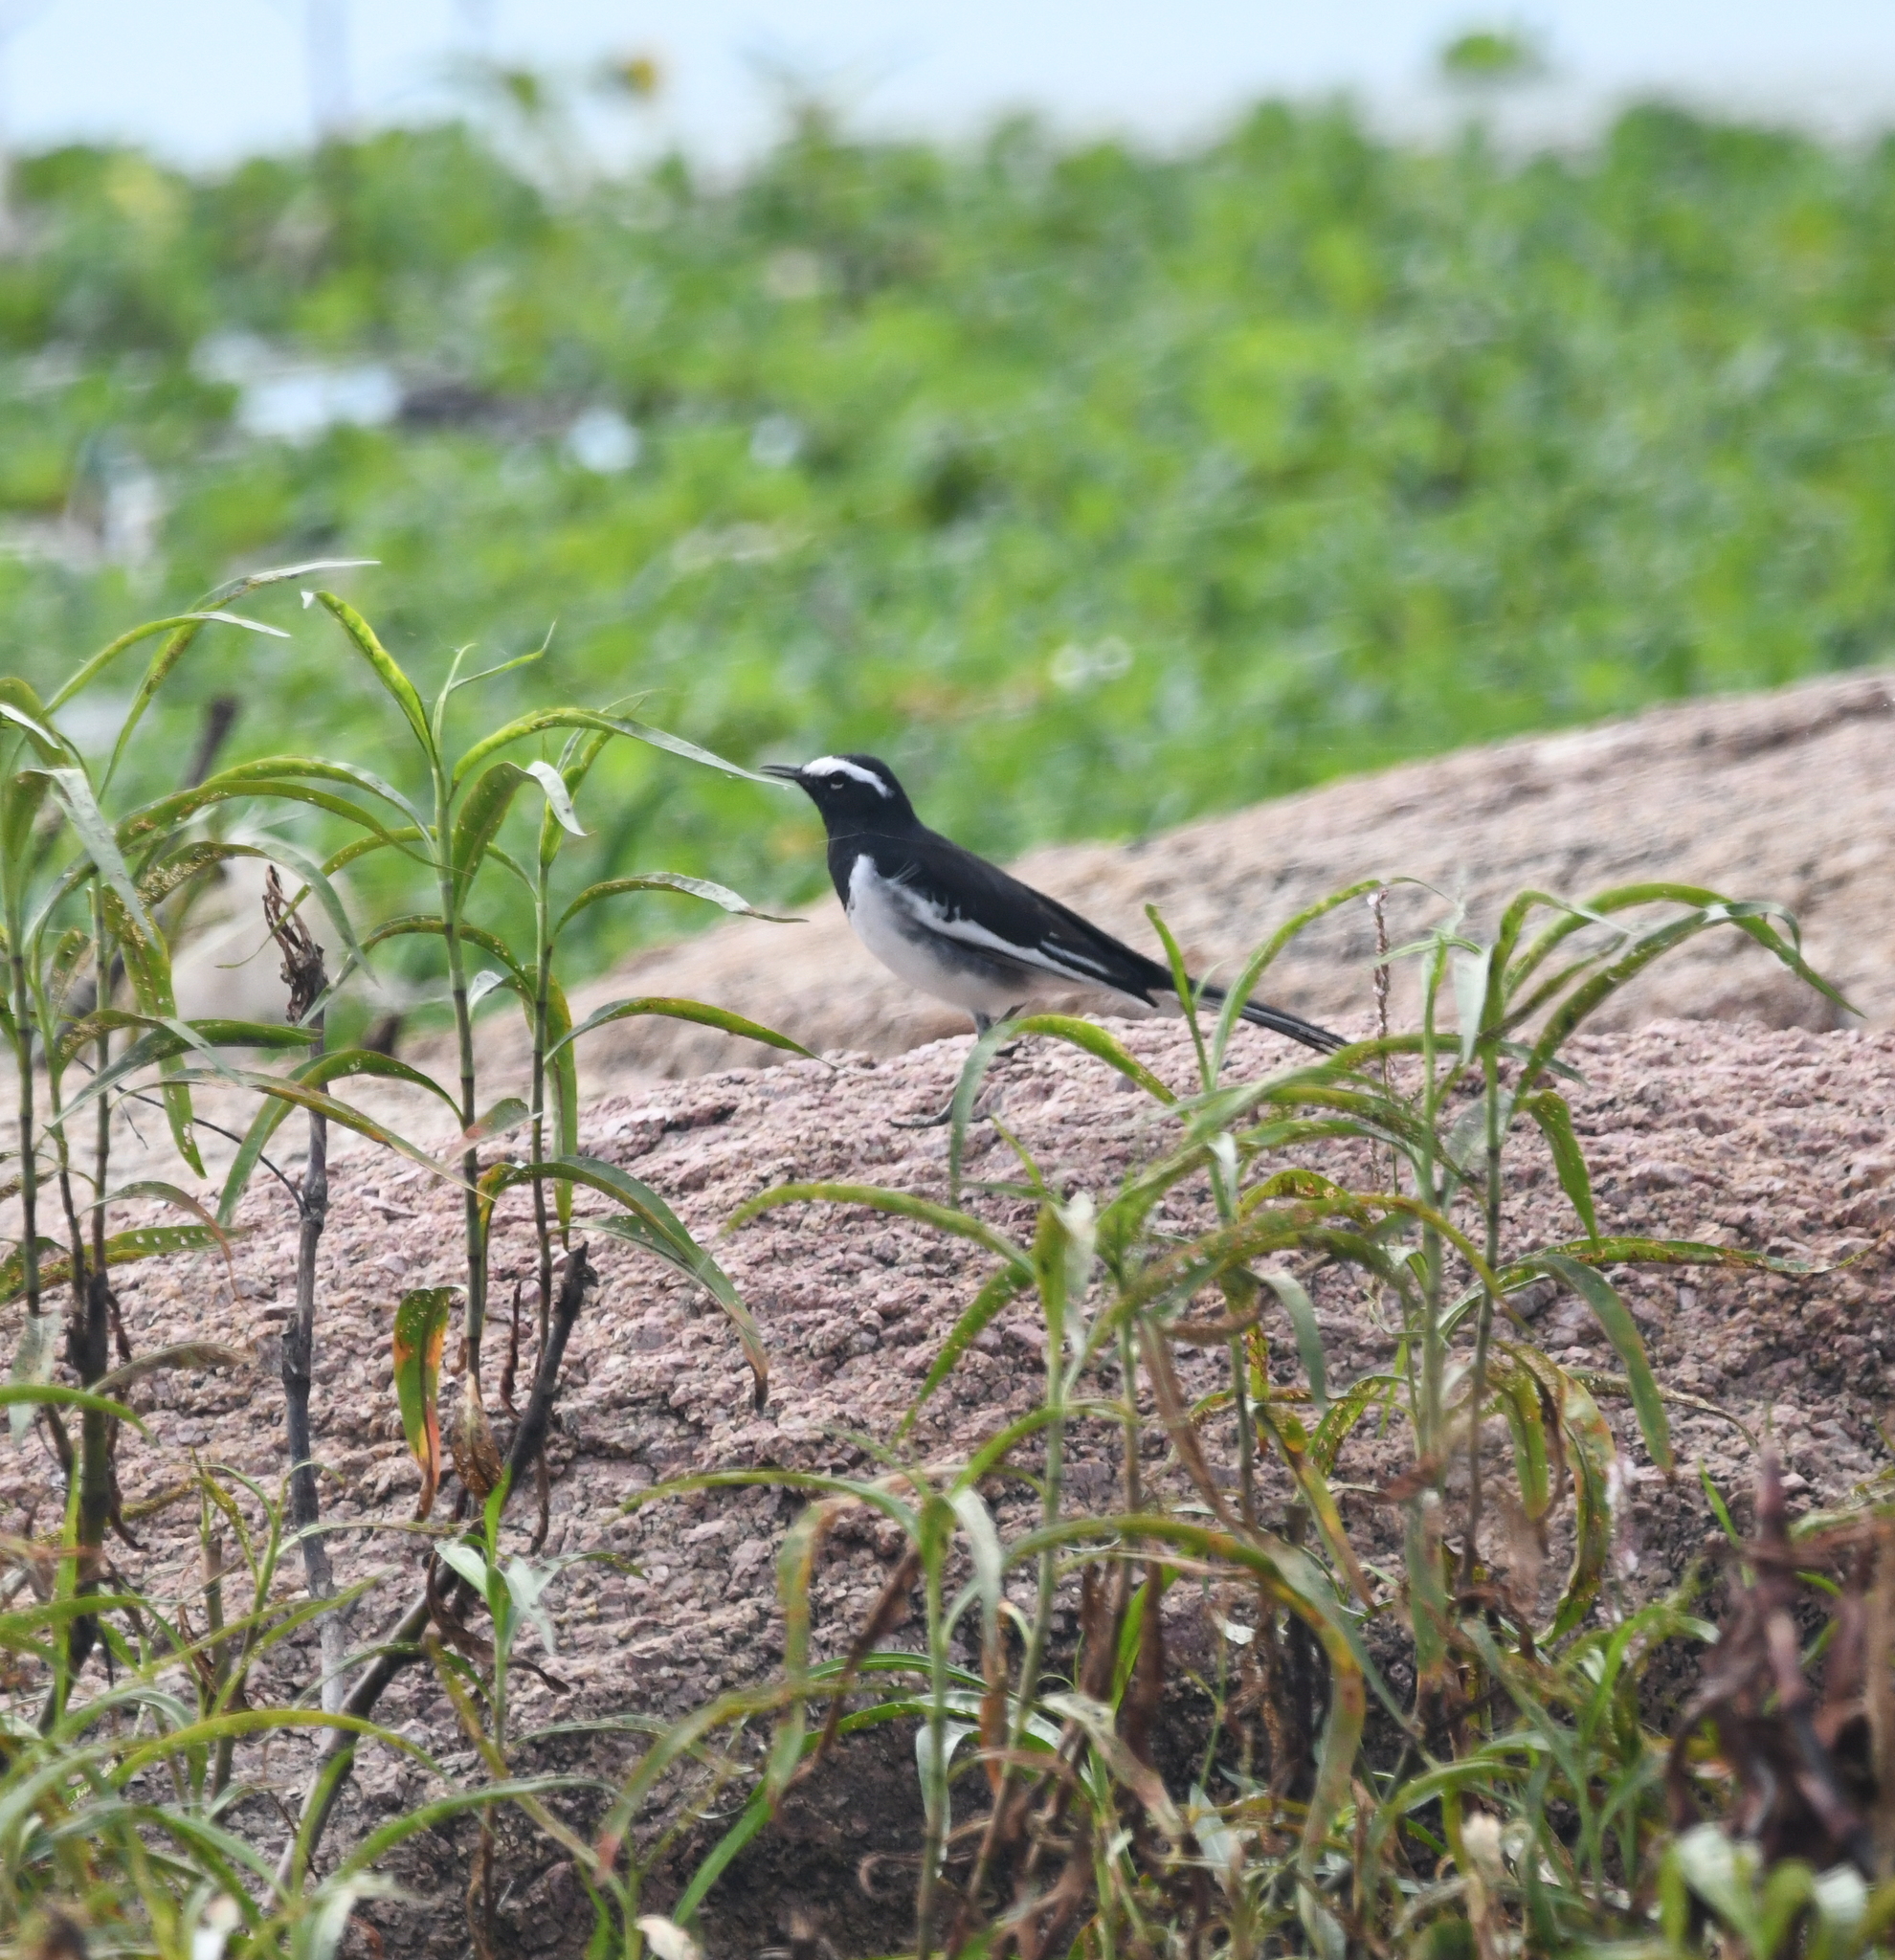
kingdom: Animalia
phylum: Chordata
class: Aves
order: Passeriformes
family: Motacillidae
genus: Motacilla
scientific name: Motacilla maderaspatensis
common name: White-browed wagtail
